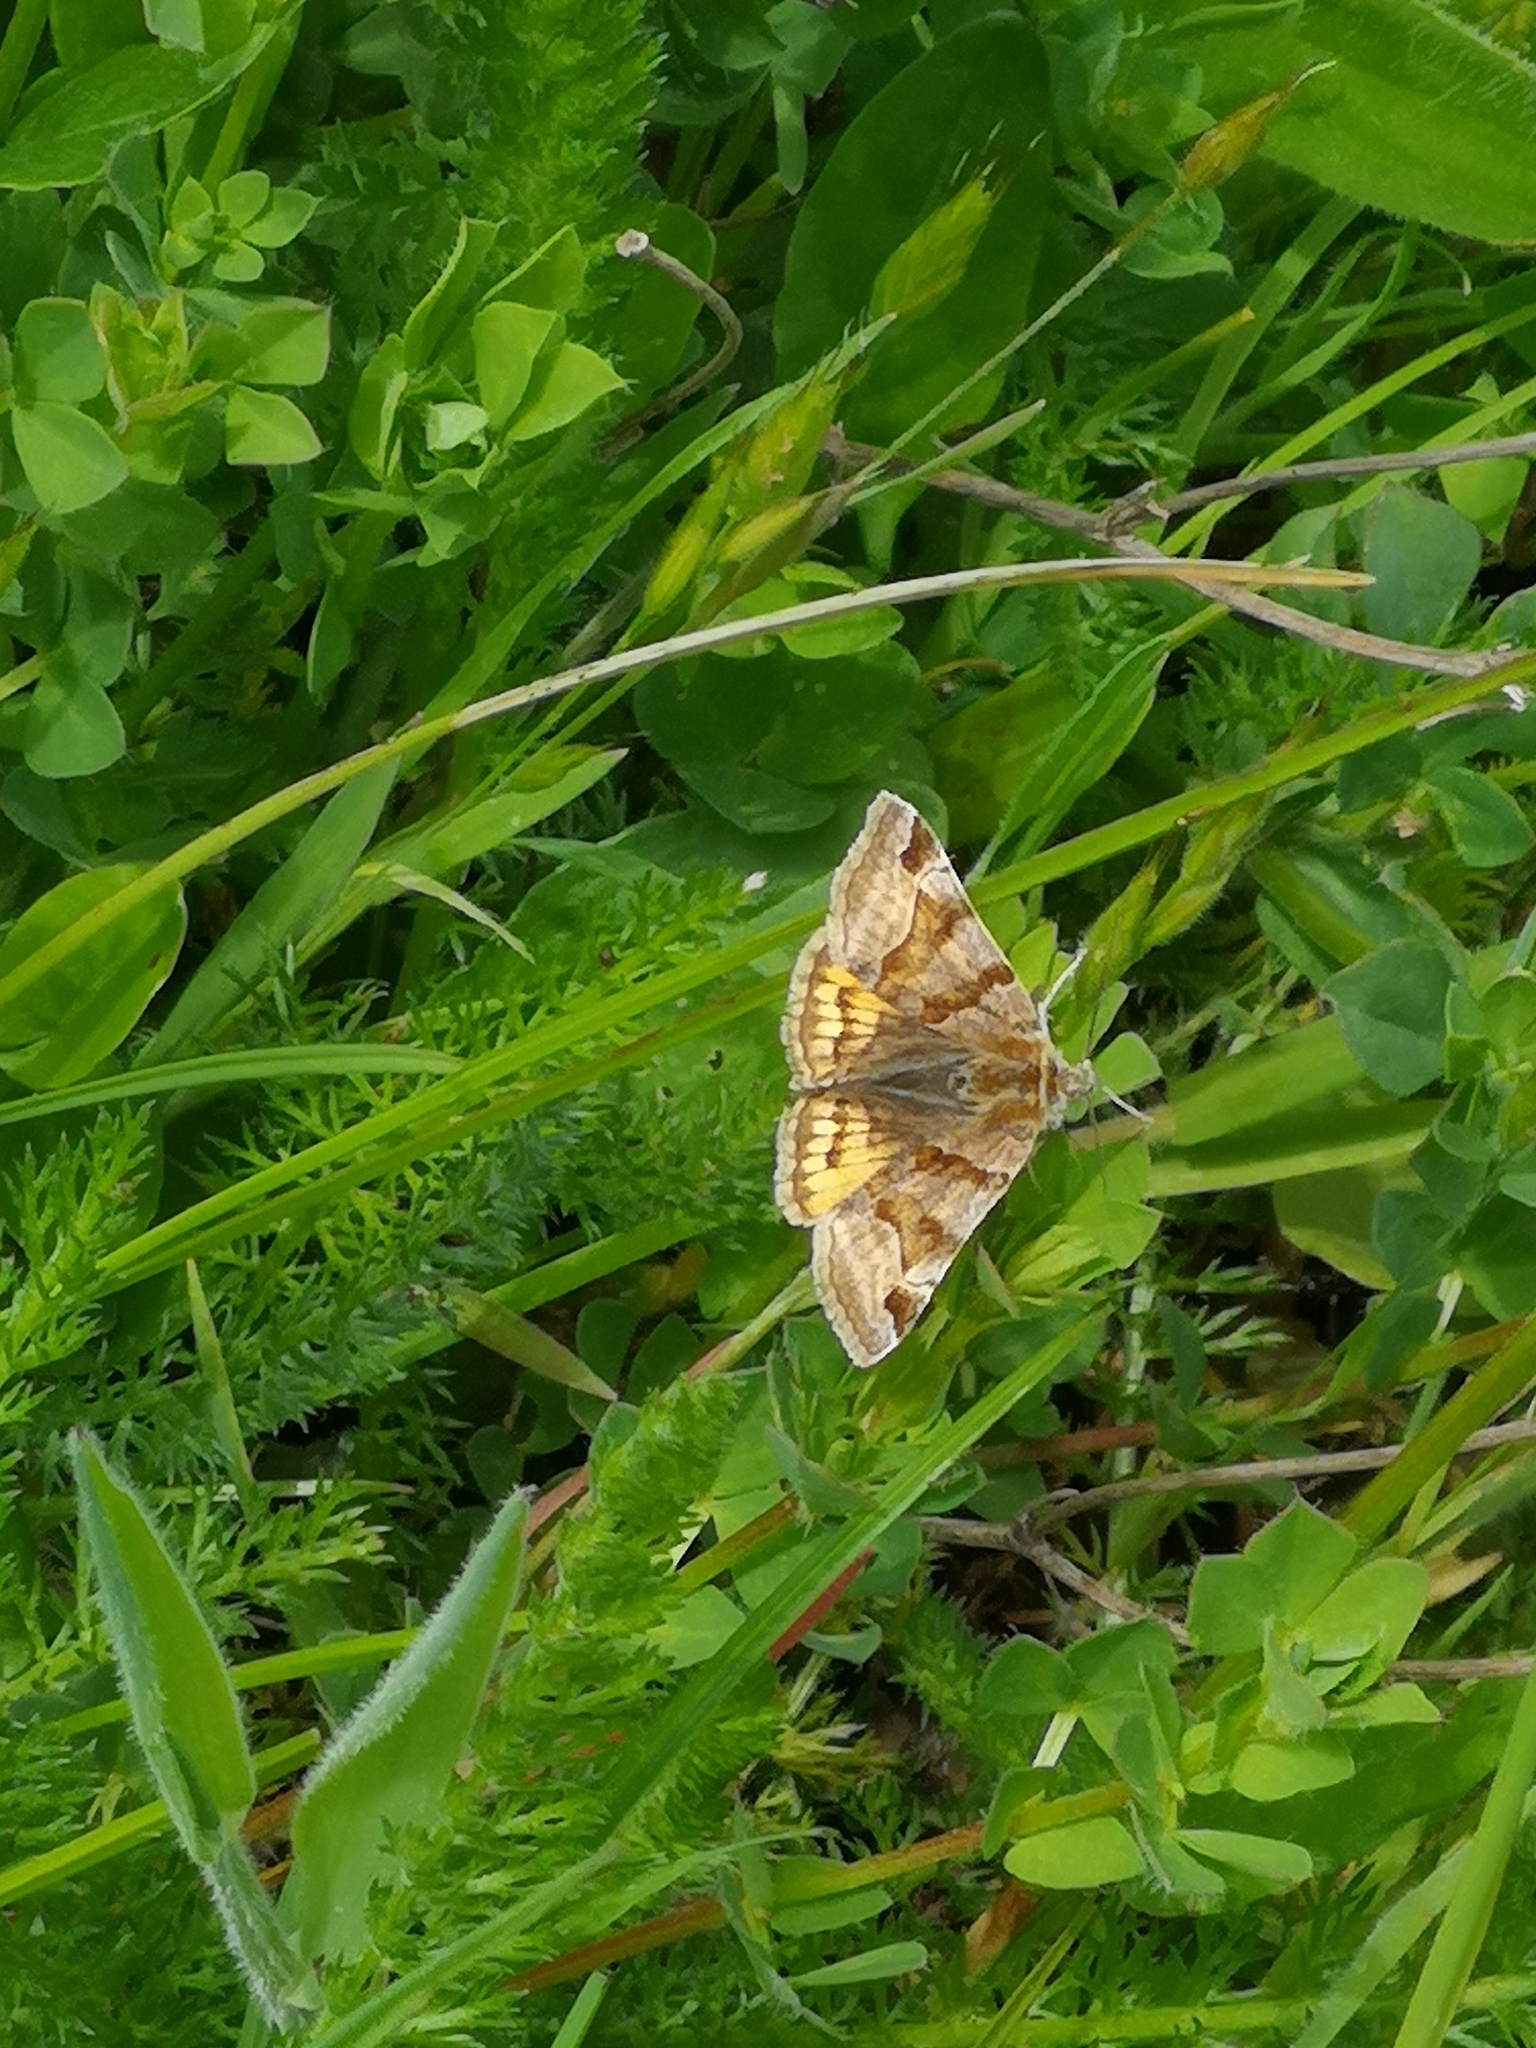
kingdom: Animalia
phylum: Arthropoda
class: Insecta
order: Lepidoptera
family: Erebidae
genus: Euclidia
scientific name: Euclidia glyphica
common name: Burnet companion
